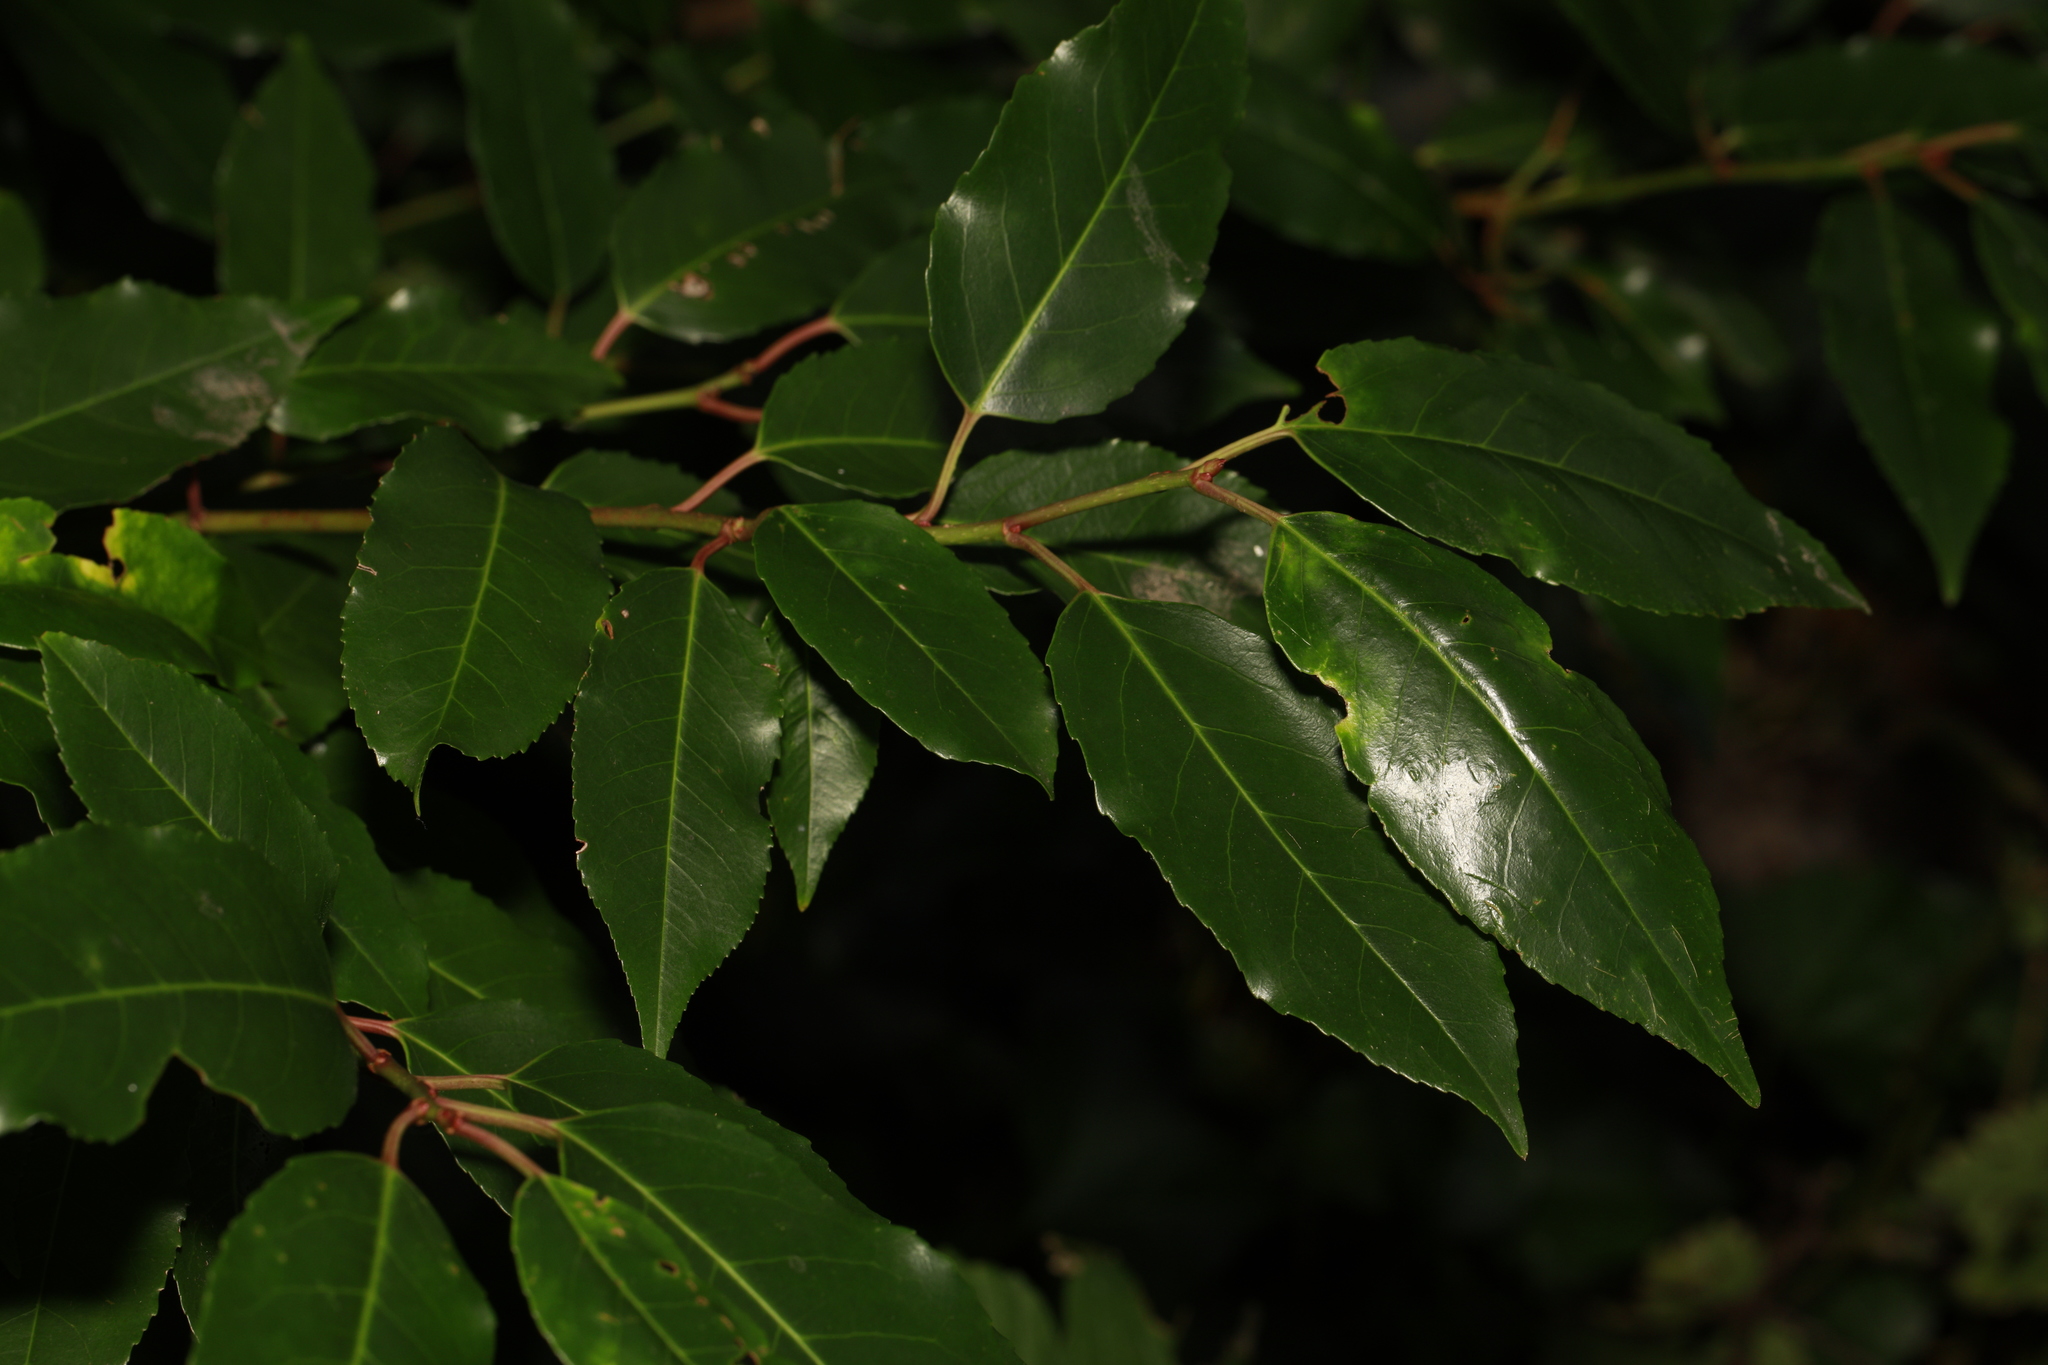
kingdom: Plantae
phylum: Tracheophyta
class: Magnoliopsida
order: Rosales
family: Rosaceae
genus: Prunus
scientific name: Prunus lusitanica
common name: Portugal laurel
